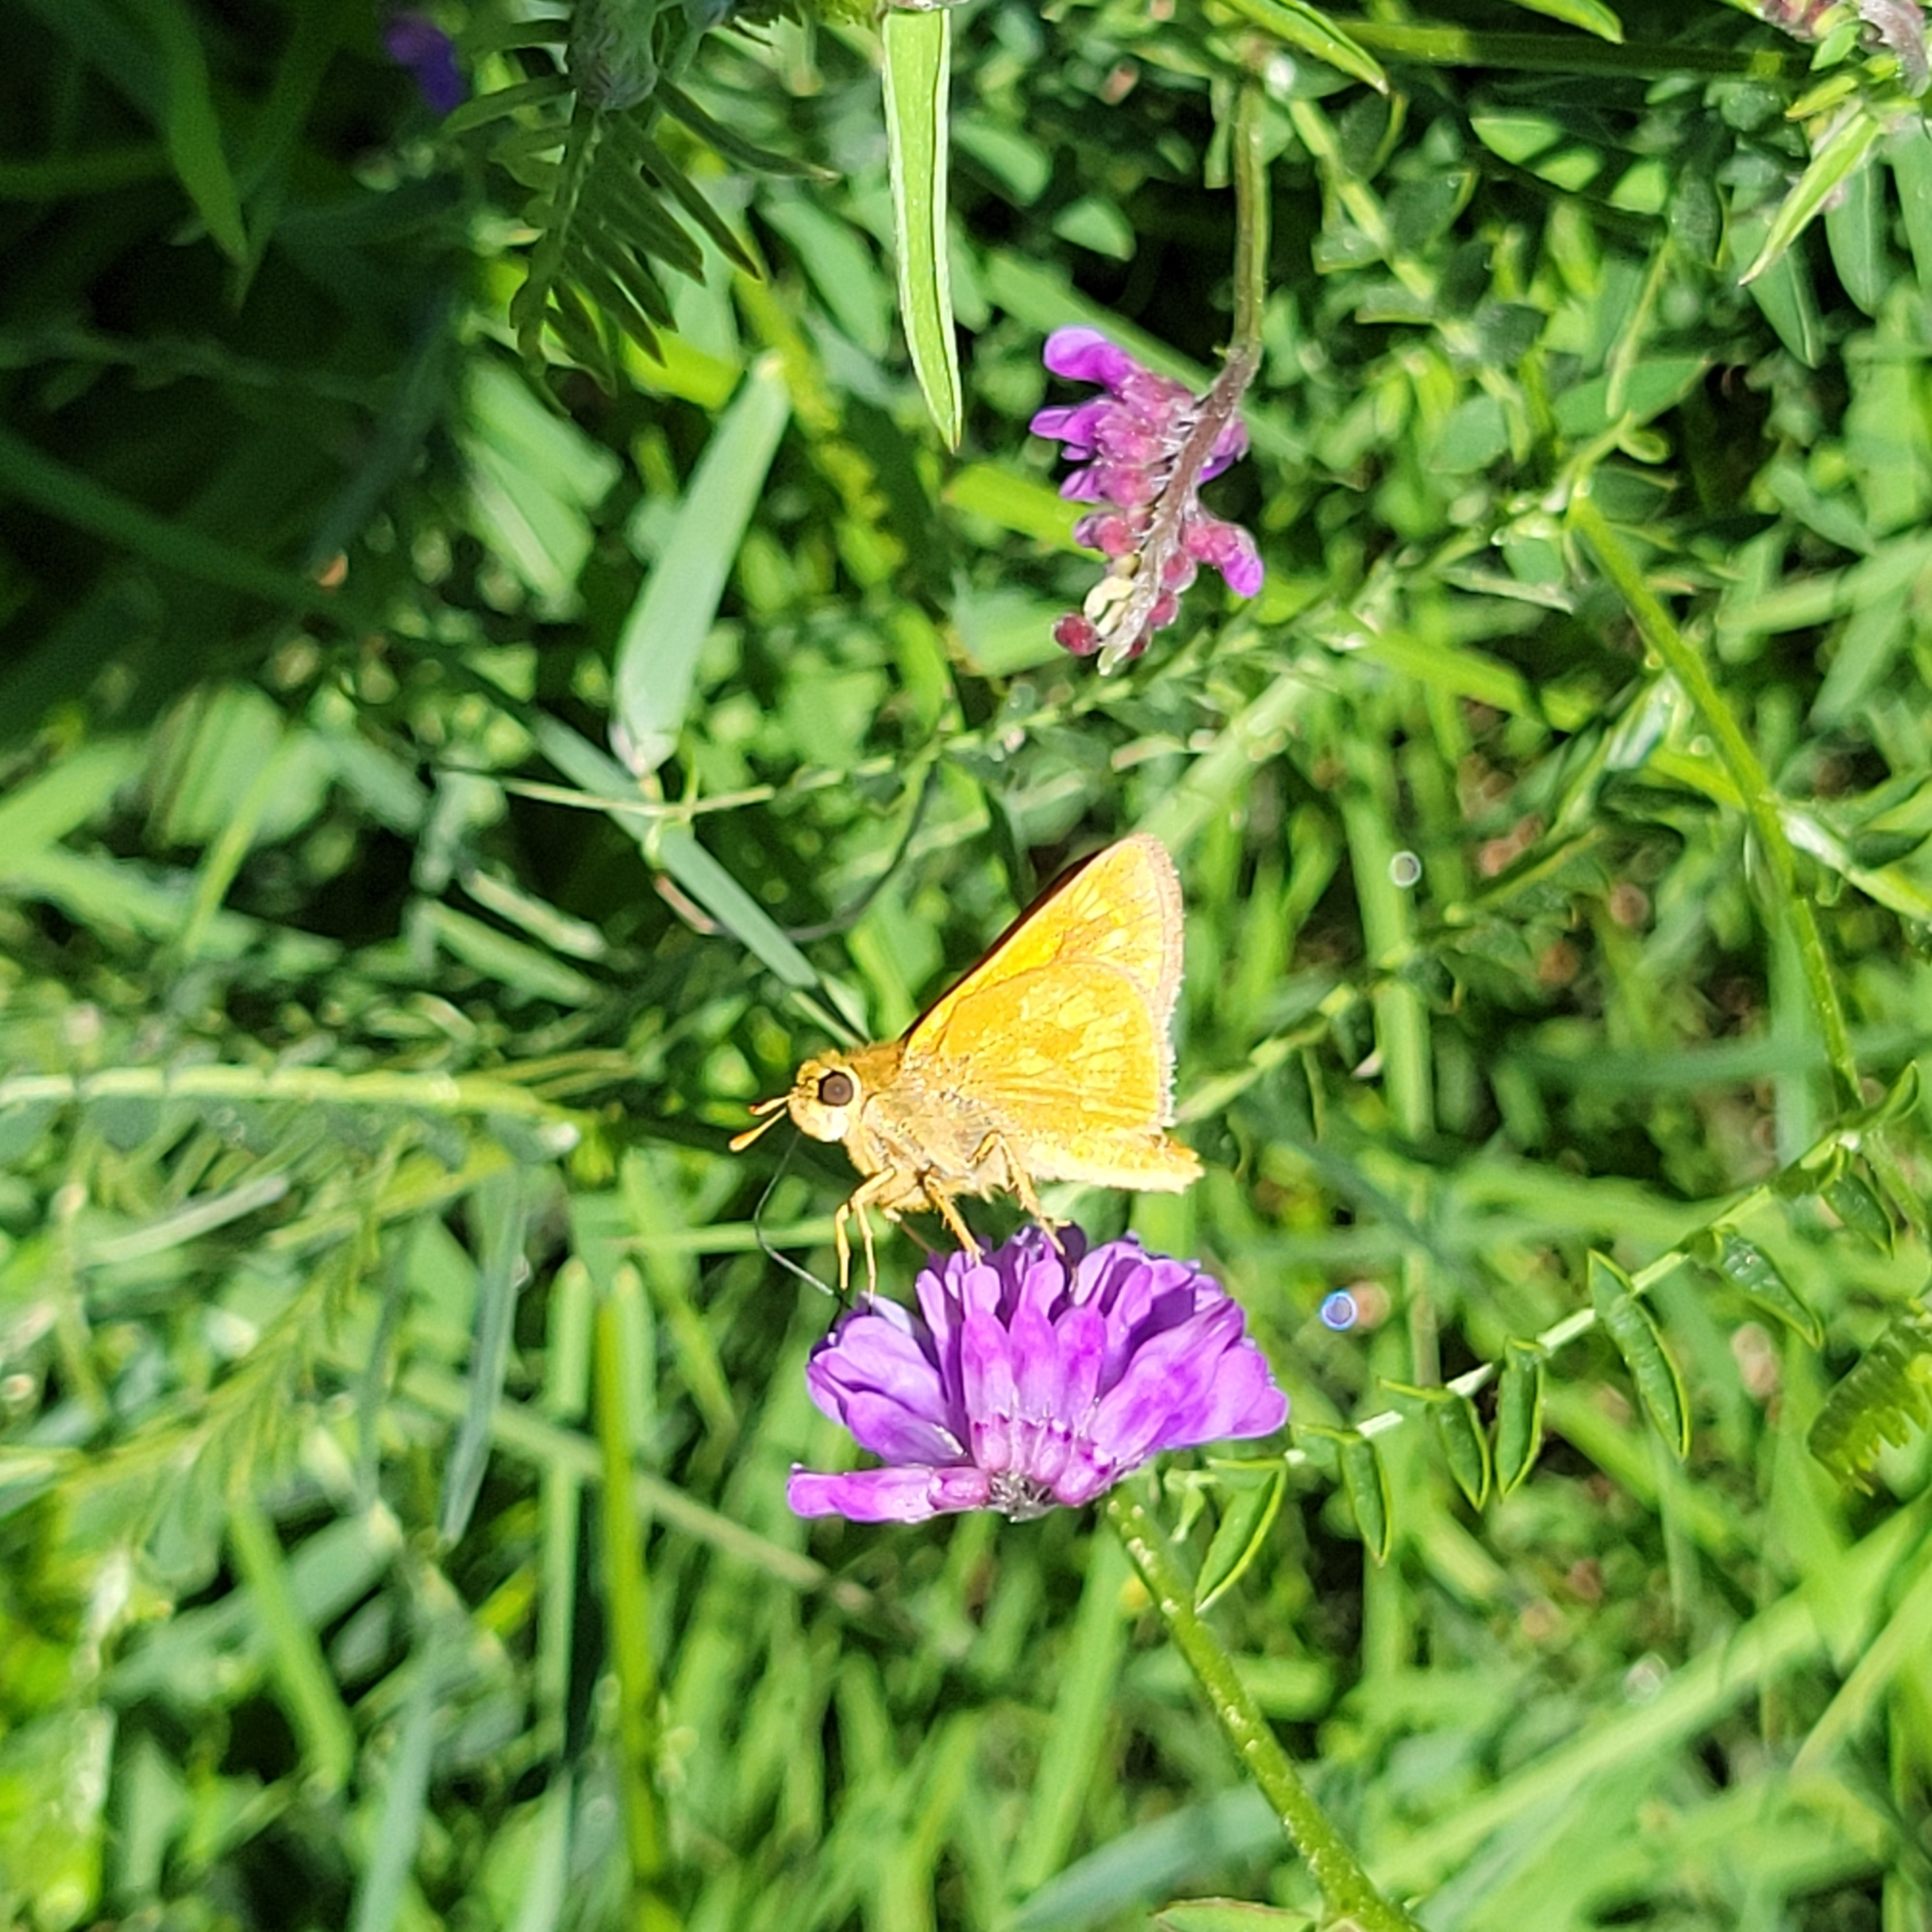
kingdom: Animalia
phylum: Arthropoda
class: Insecta
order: Lepidoptera
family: Hesperiidae
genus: Polites
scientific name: Polites mystic
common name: Long dash
